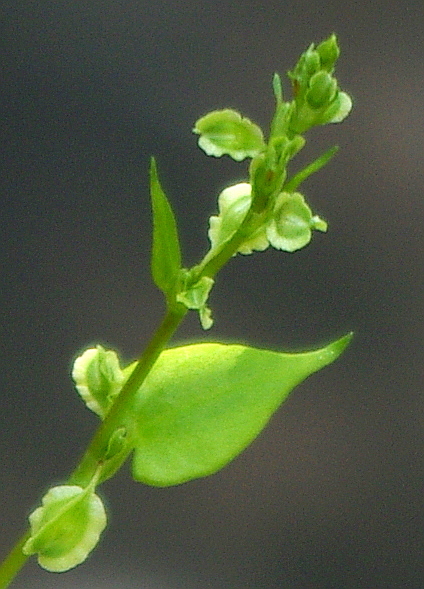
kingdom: Plantae
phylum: Tracheophyta
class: Magnoliopsida
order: Caryophyllales
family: Polygonaceae
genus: Fallopia
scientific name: Fallopia dumetorum
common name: Copse-bindweed
